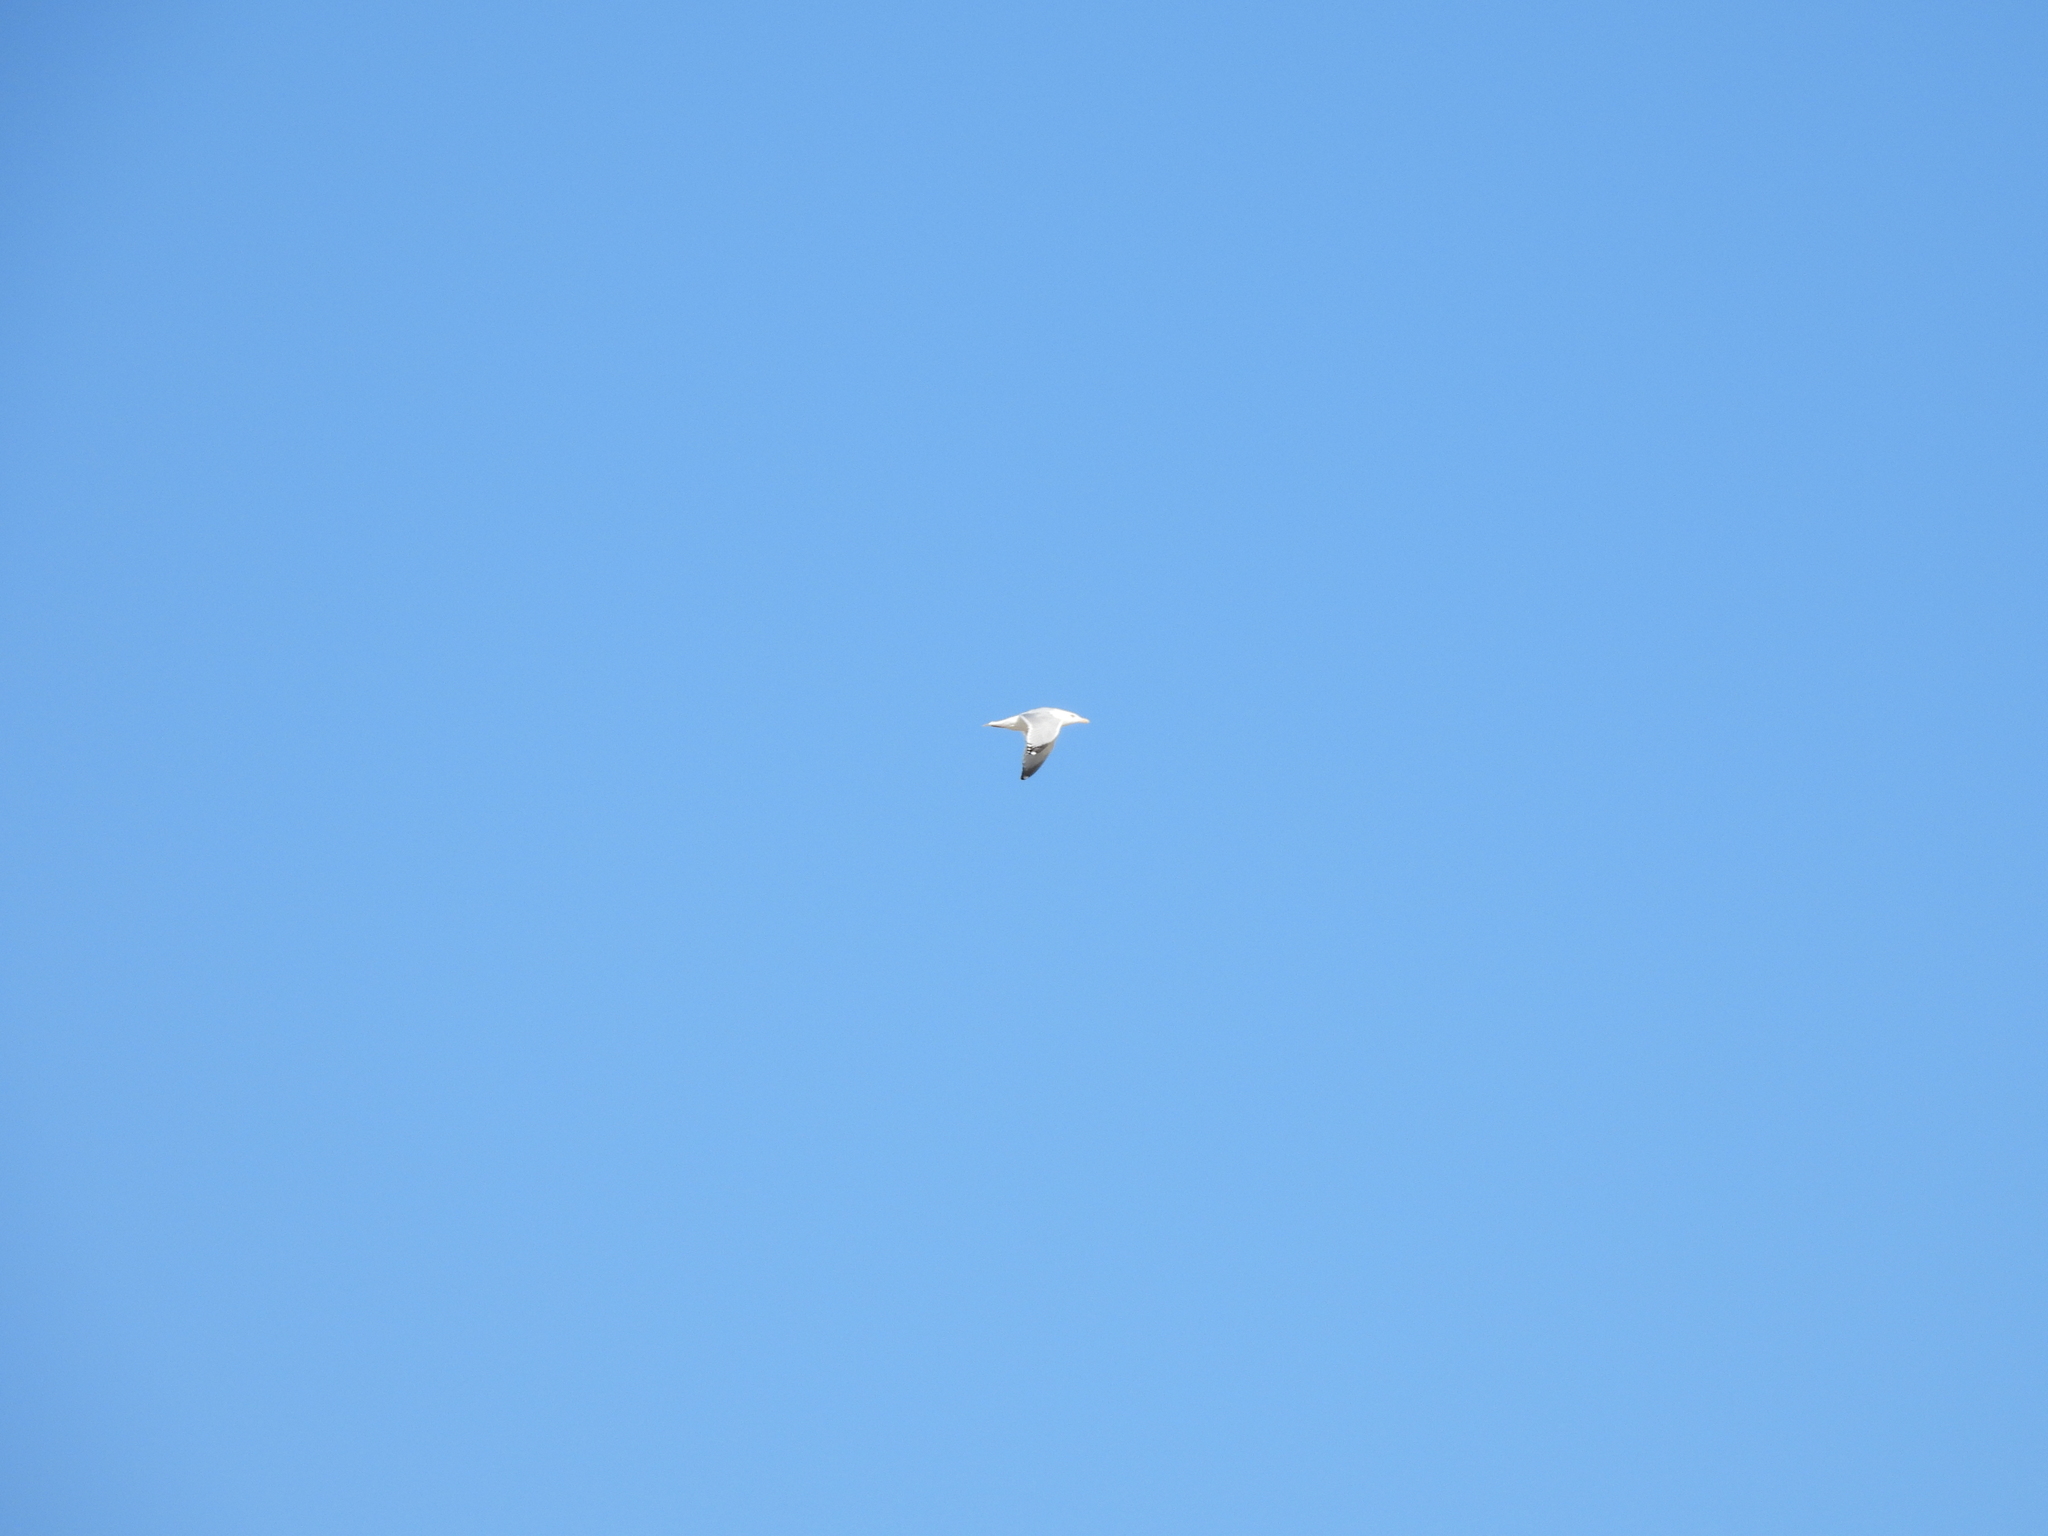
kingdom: Animalia
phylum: Chordata
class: Aves
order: Charadriiformes
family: Laridae
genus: Larus
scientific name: Larus argentatus
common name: Herring gull
